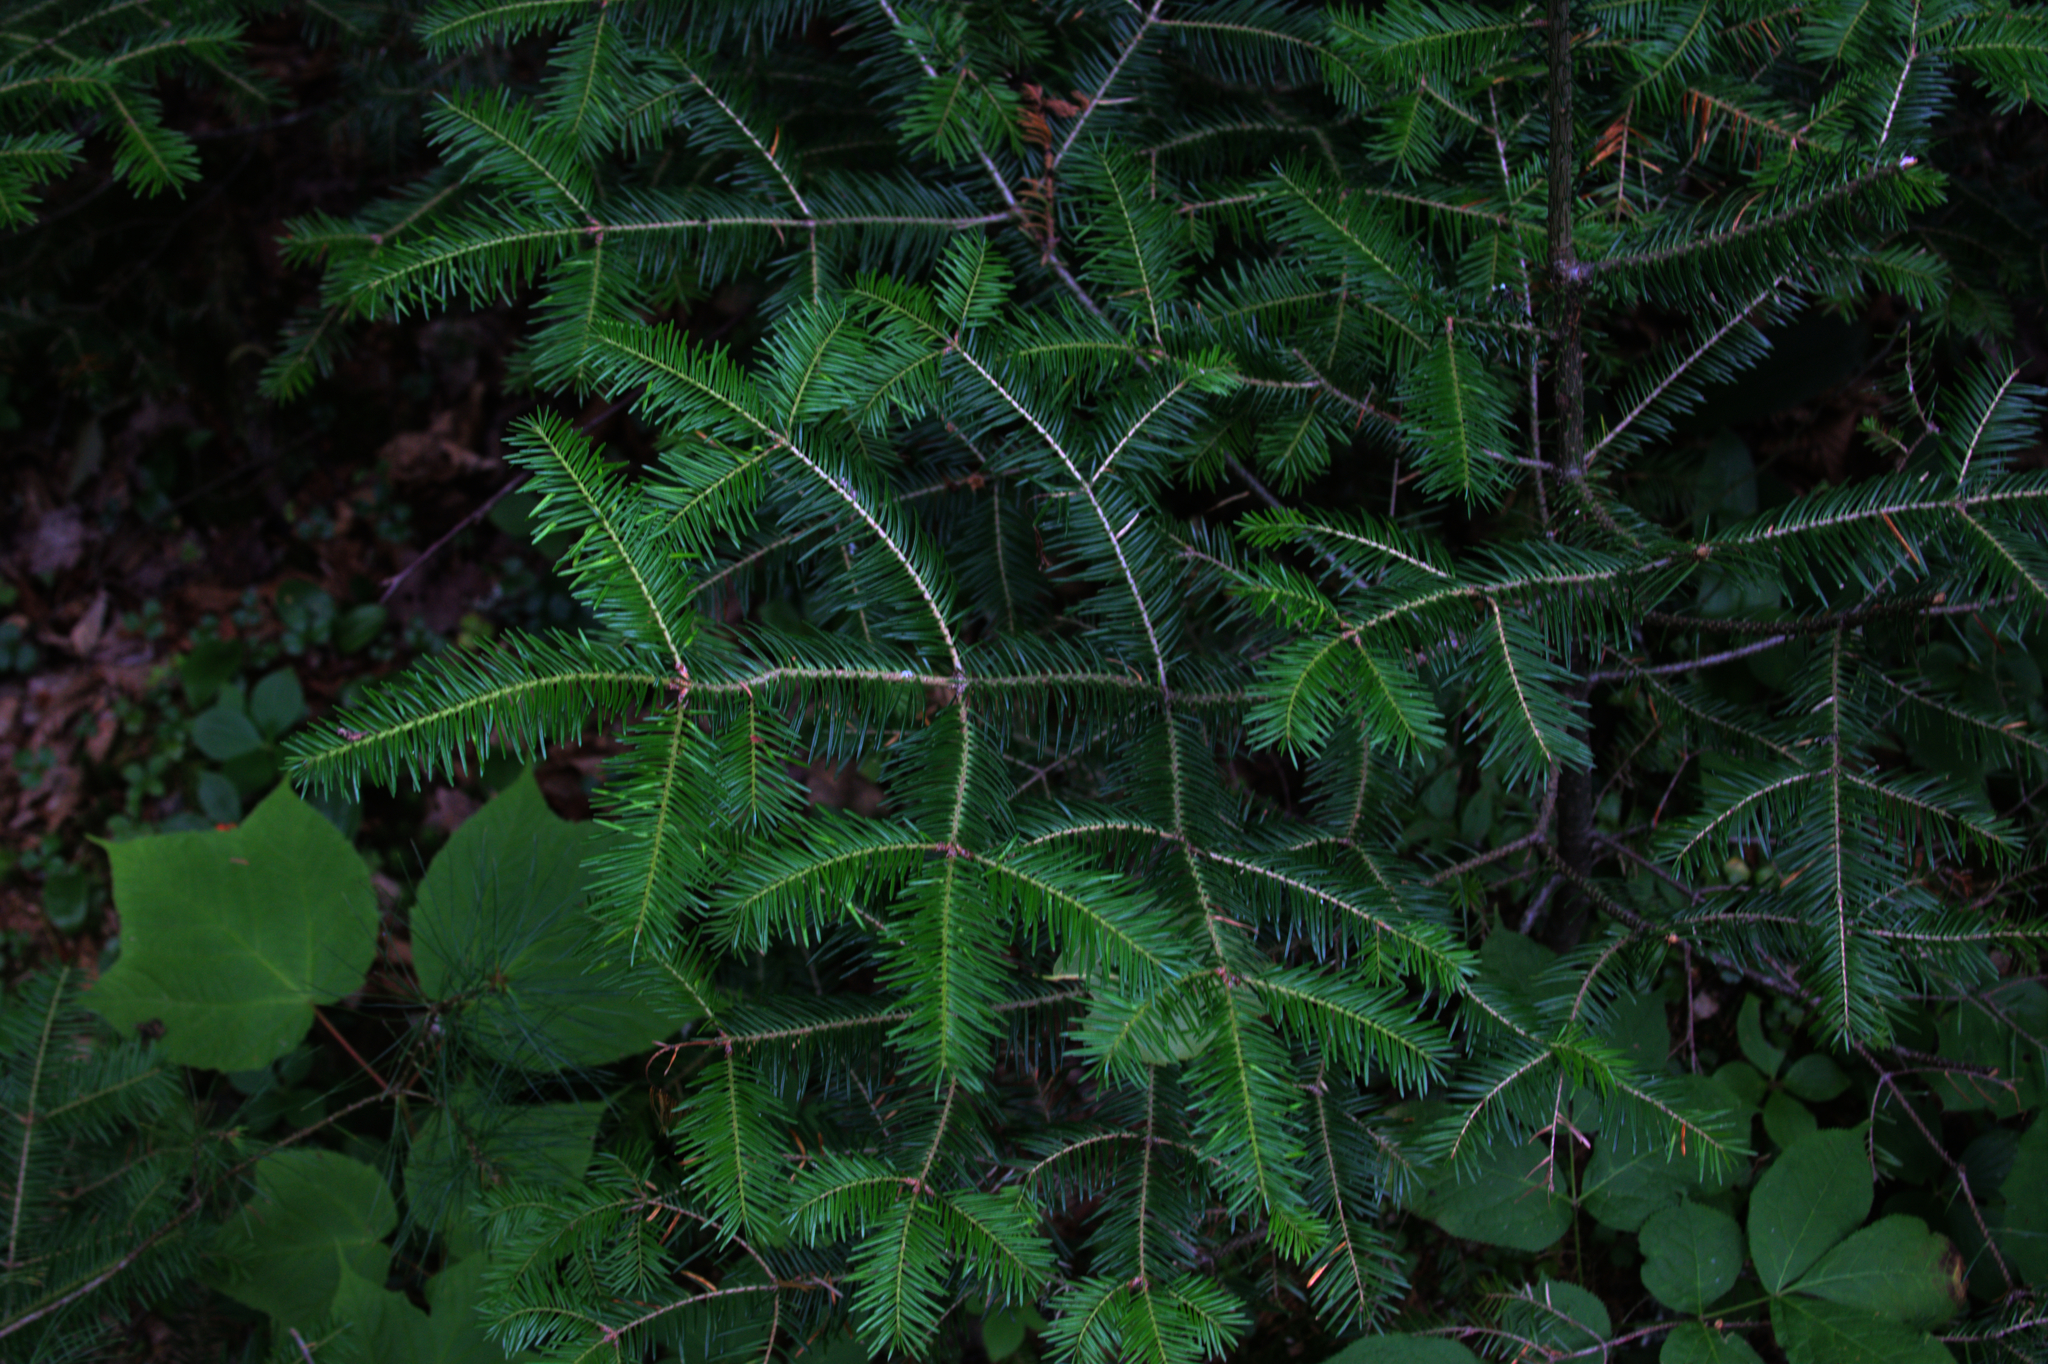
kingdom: Plantae
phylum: Tracheophyta
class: Pinopsida
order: Pinales
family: Pinaceae
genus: Abies
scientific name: Abies balsamea
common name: Balsam fir
